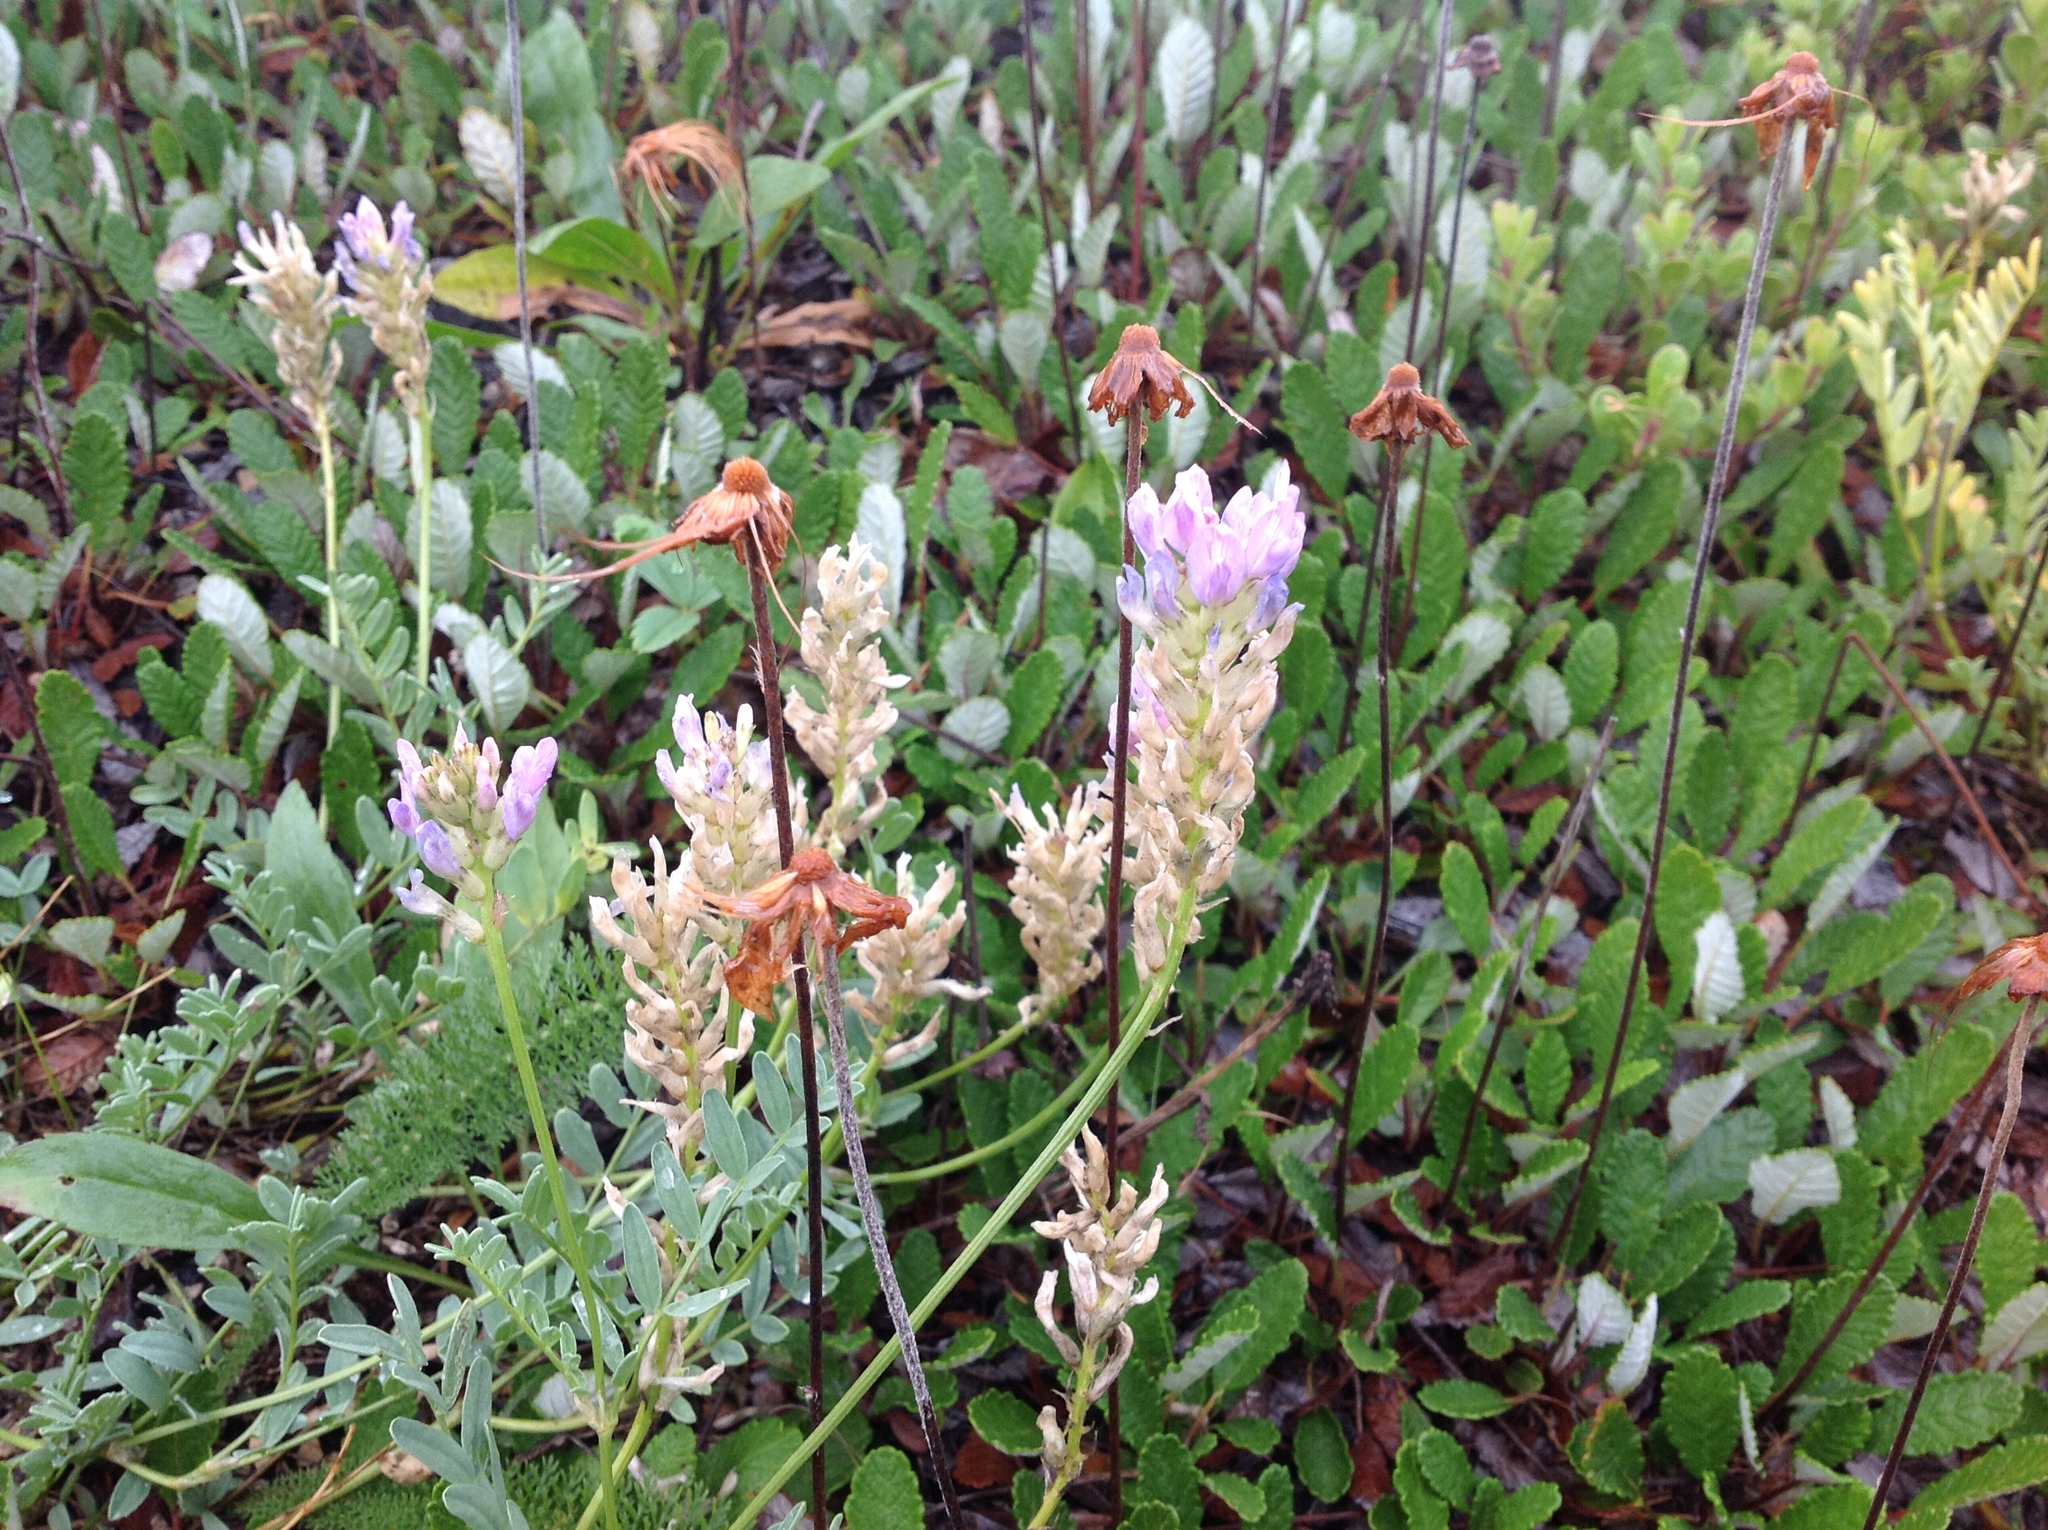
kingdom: Plantae
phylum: Tracheophyta
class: Magnoliopsida
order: Fabales
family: Fabaceae
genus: Astragalus
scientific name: Astragalus laxmannii
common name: Laxmann's milk-vetch
